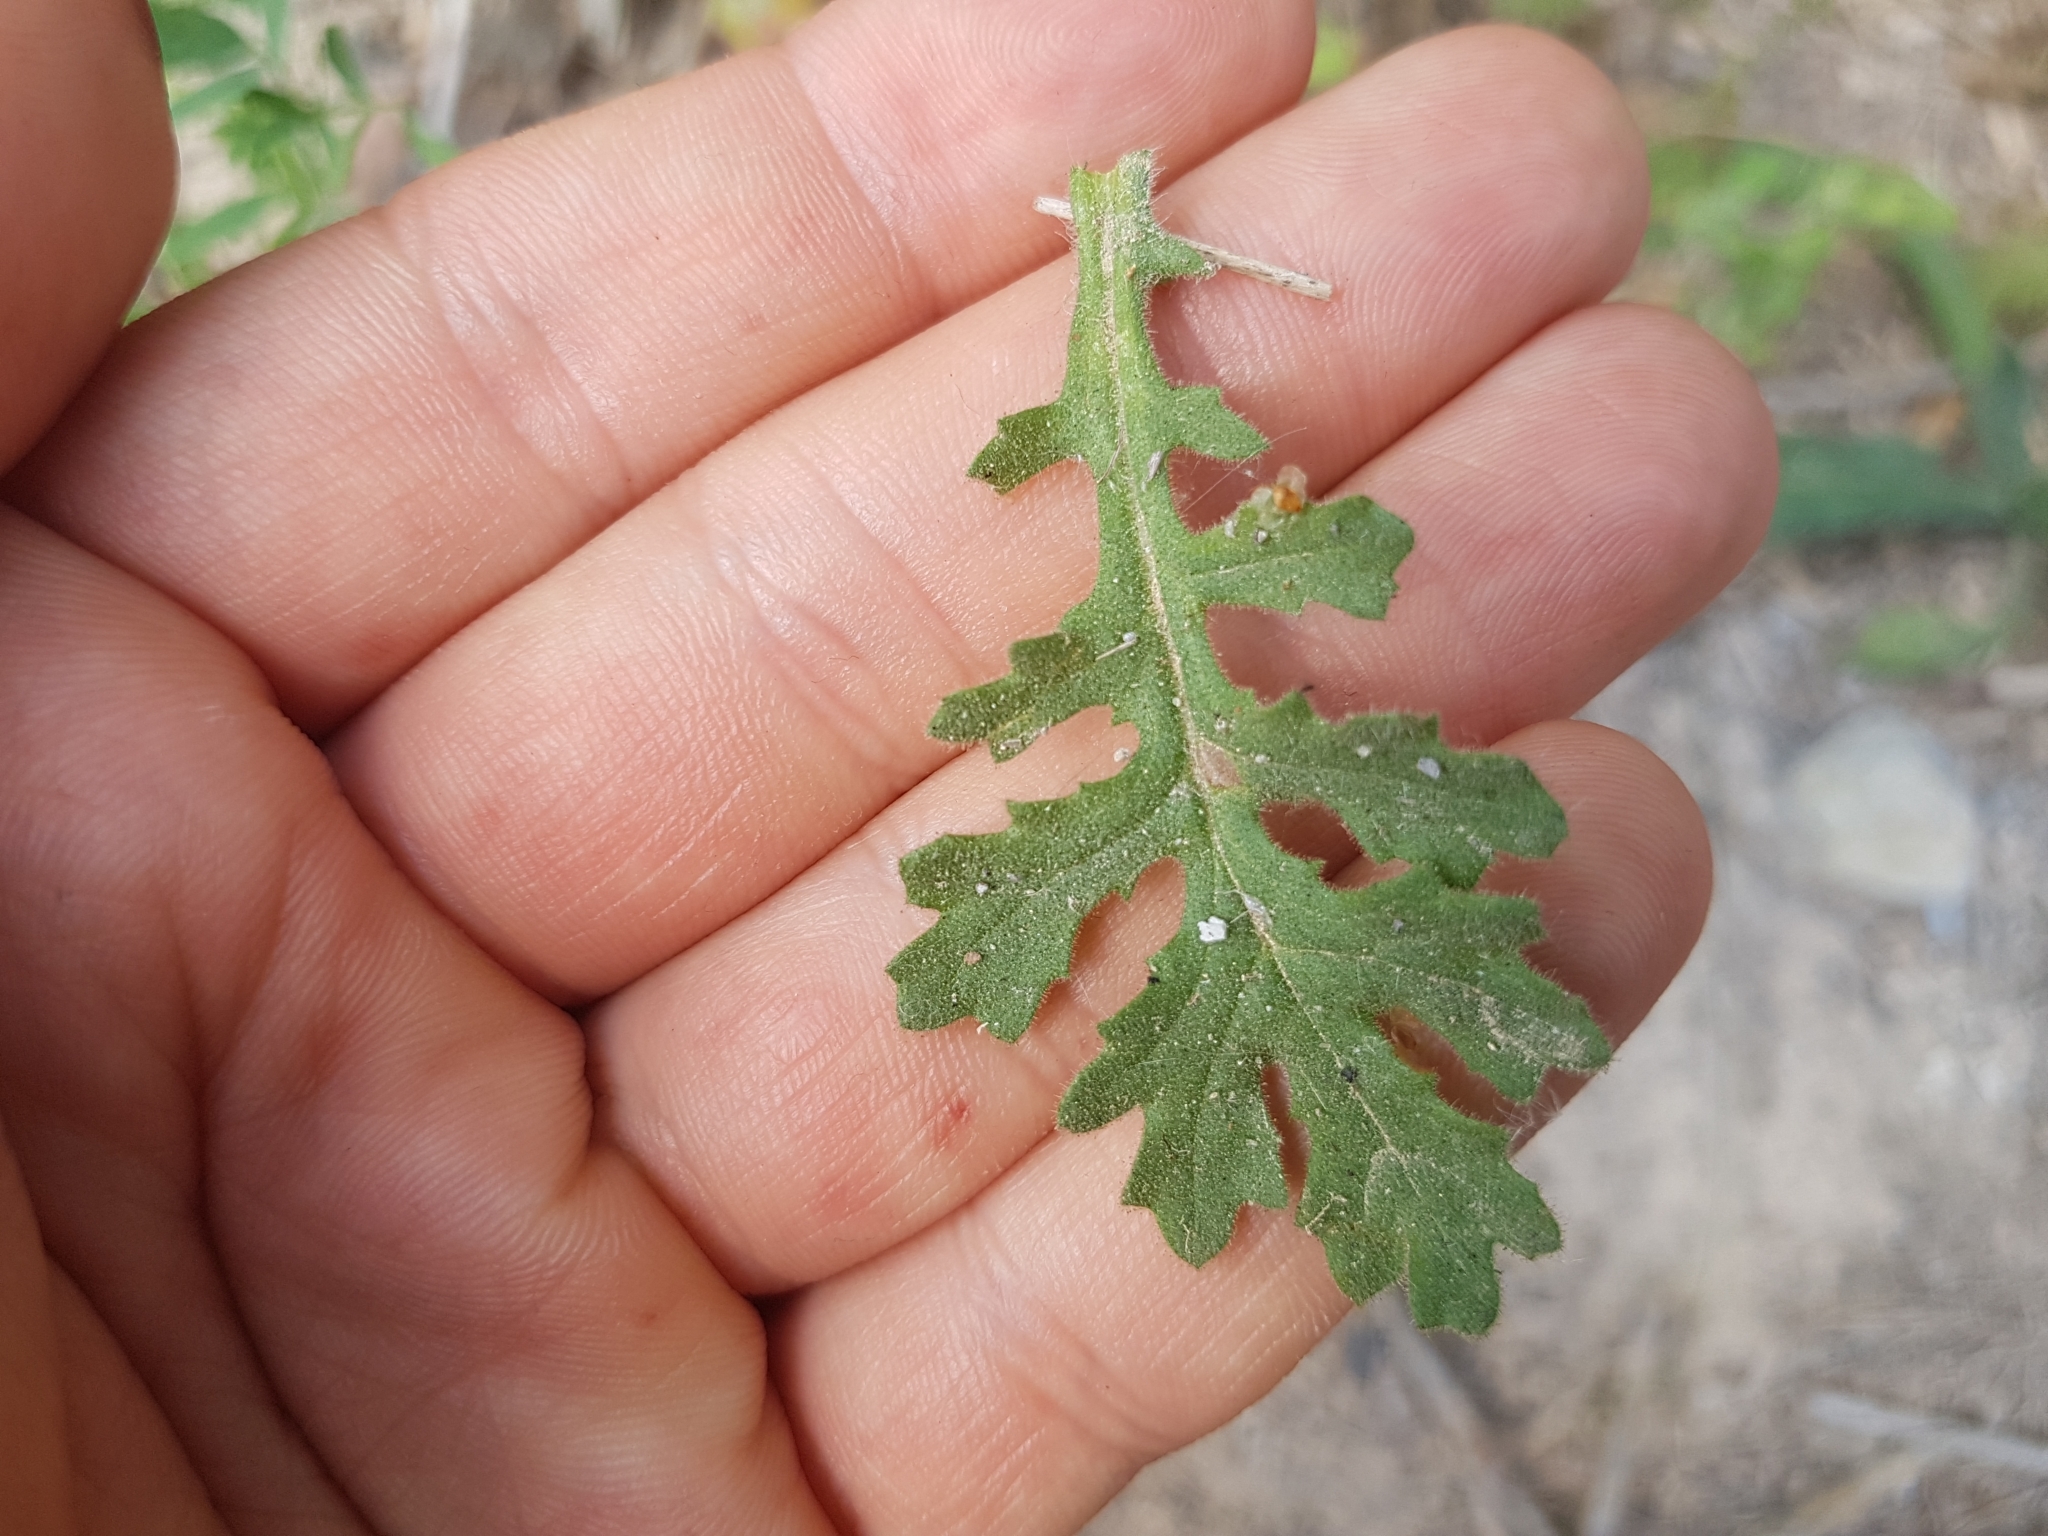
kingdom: Plantae
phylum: Tracheophyta
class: Magnoliopsida
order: Asterales
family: Asteraceae
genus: Senecio
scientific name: Senecio viscosus
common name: Sticky groundsel
